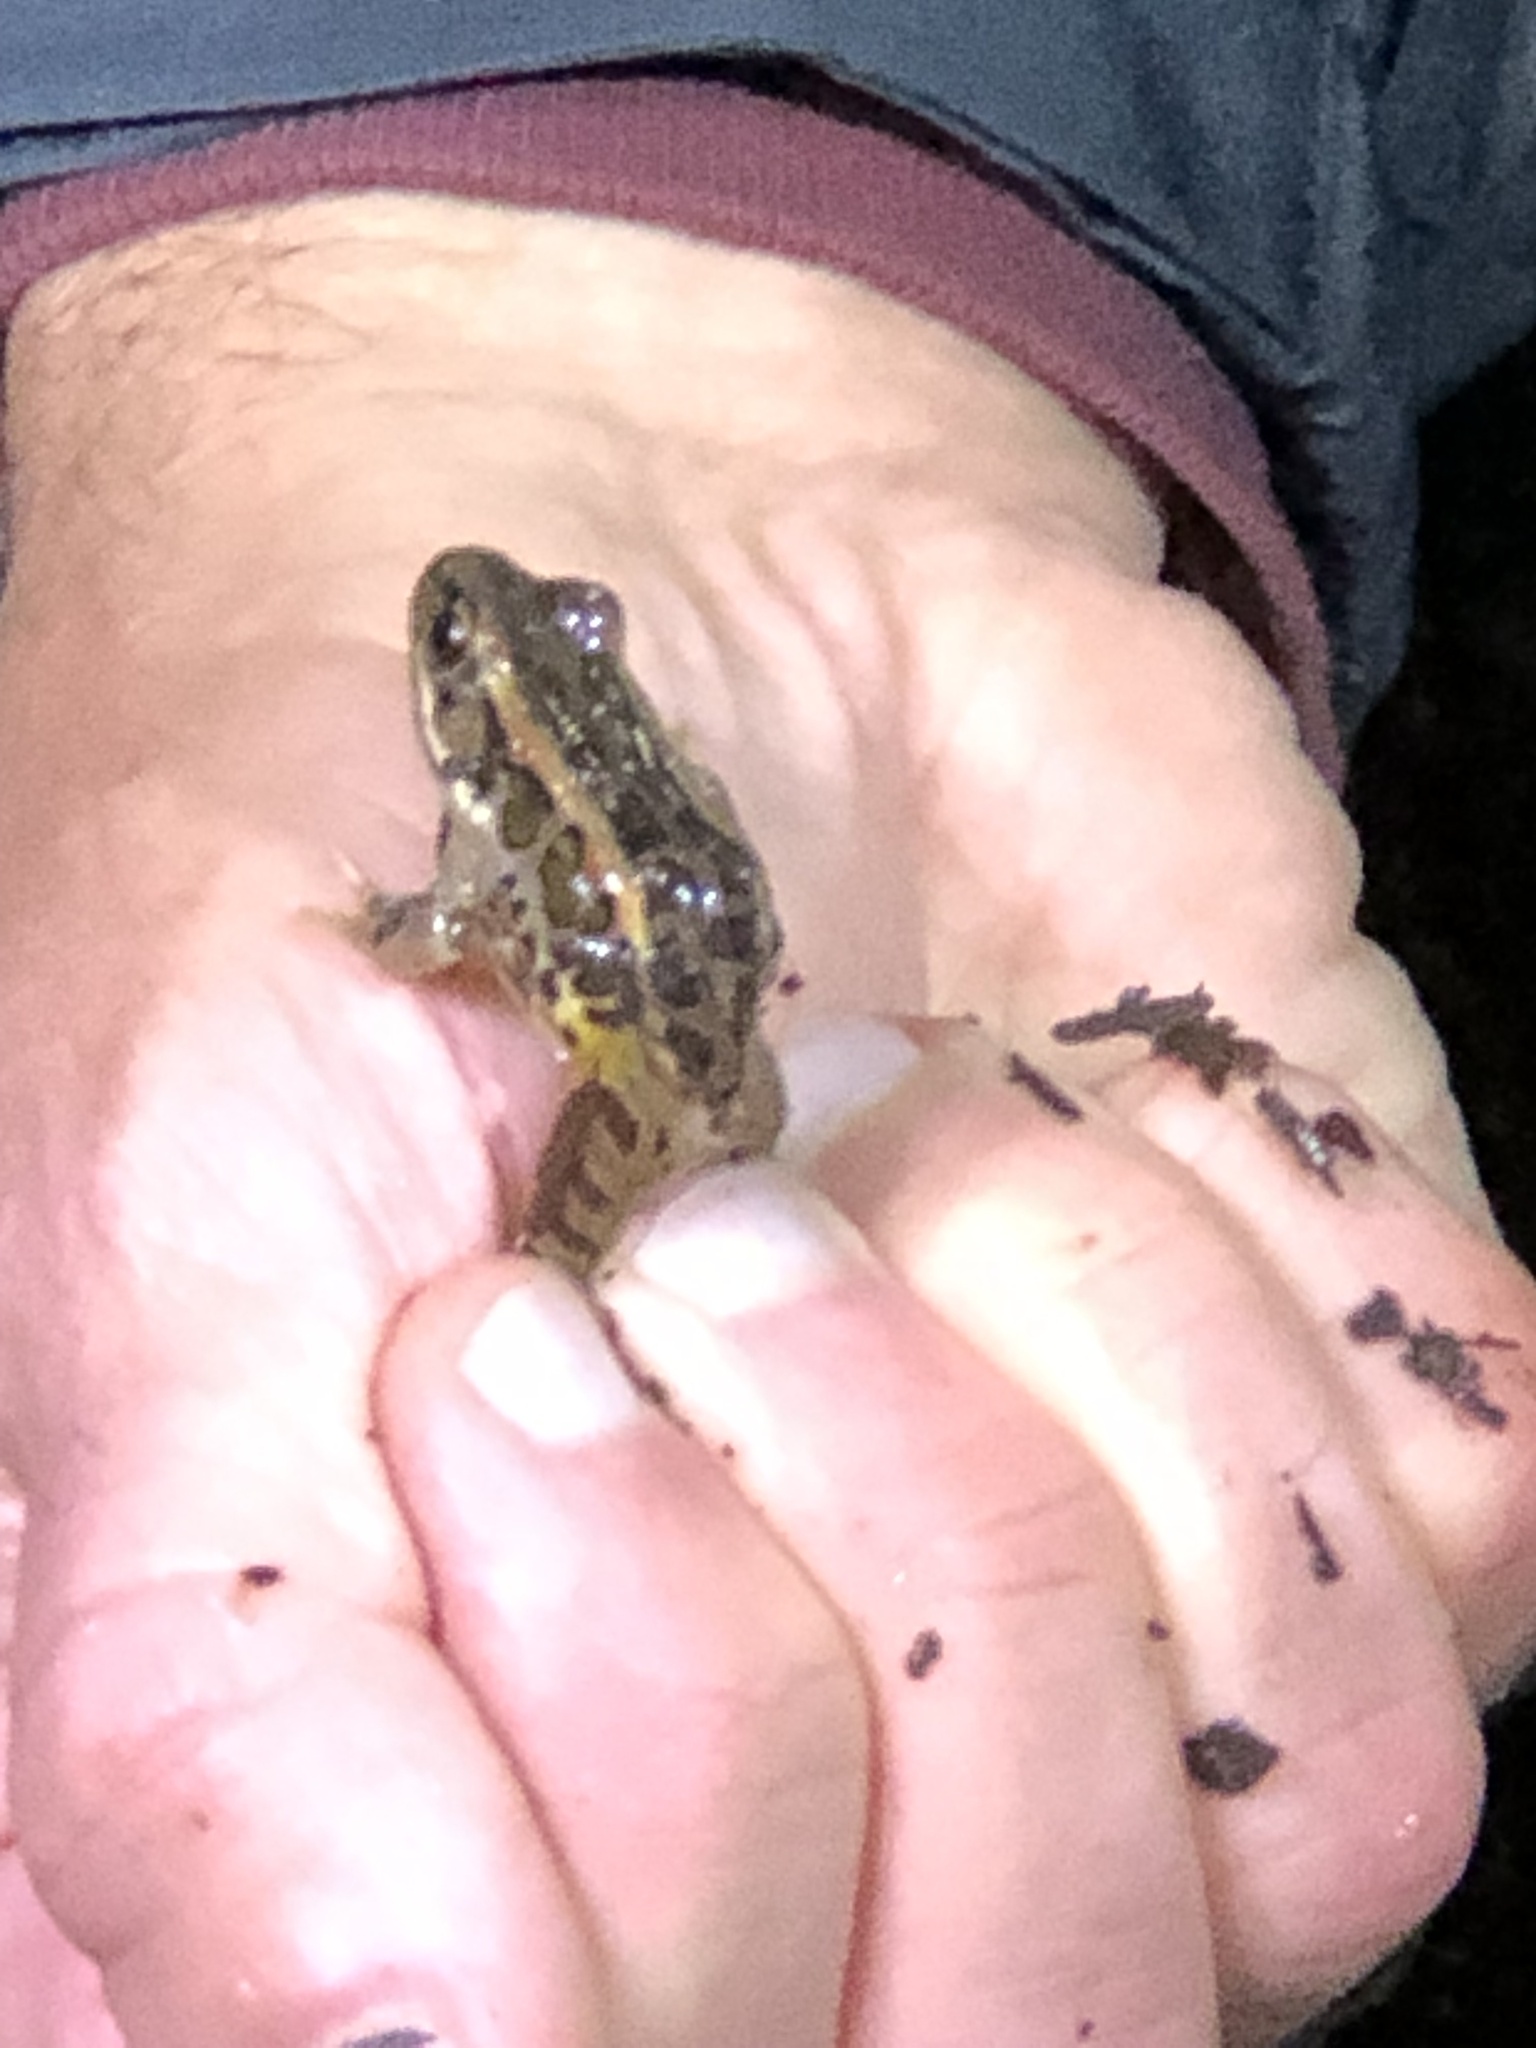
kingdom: Animalia
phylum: Chordata
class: Amphibia
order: Anura
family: Ranidae
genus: Lithobates
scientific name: Lithobates palustris
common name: Pickerel frog
